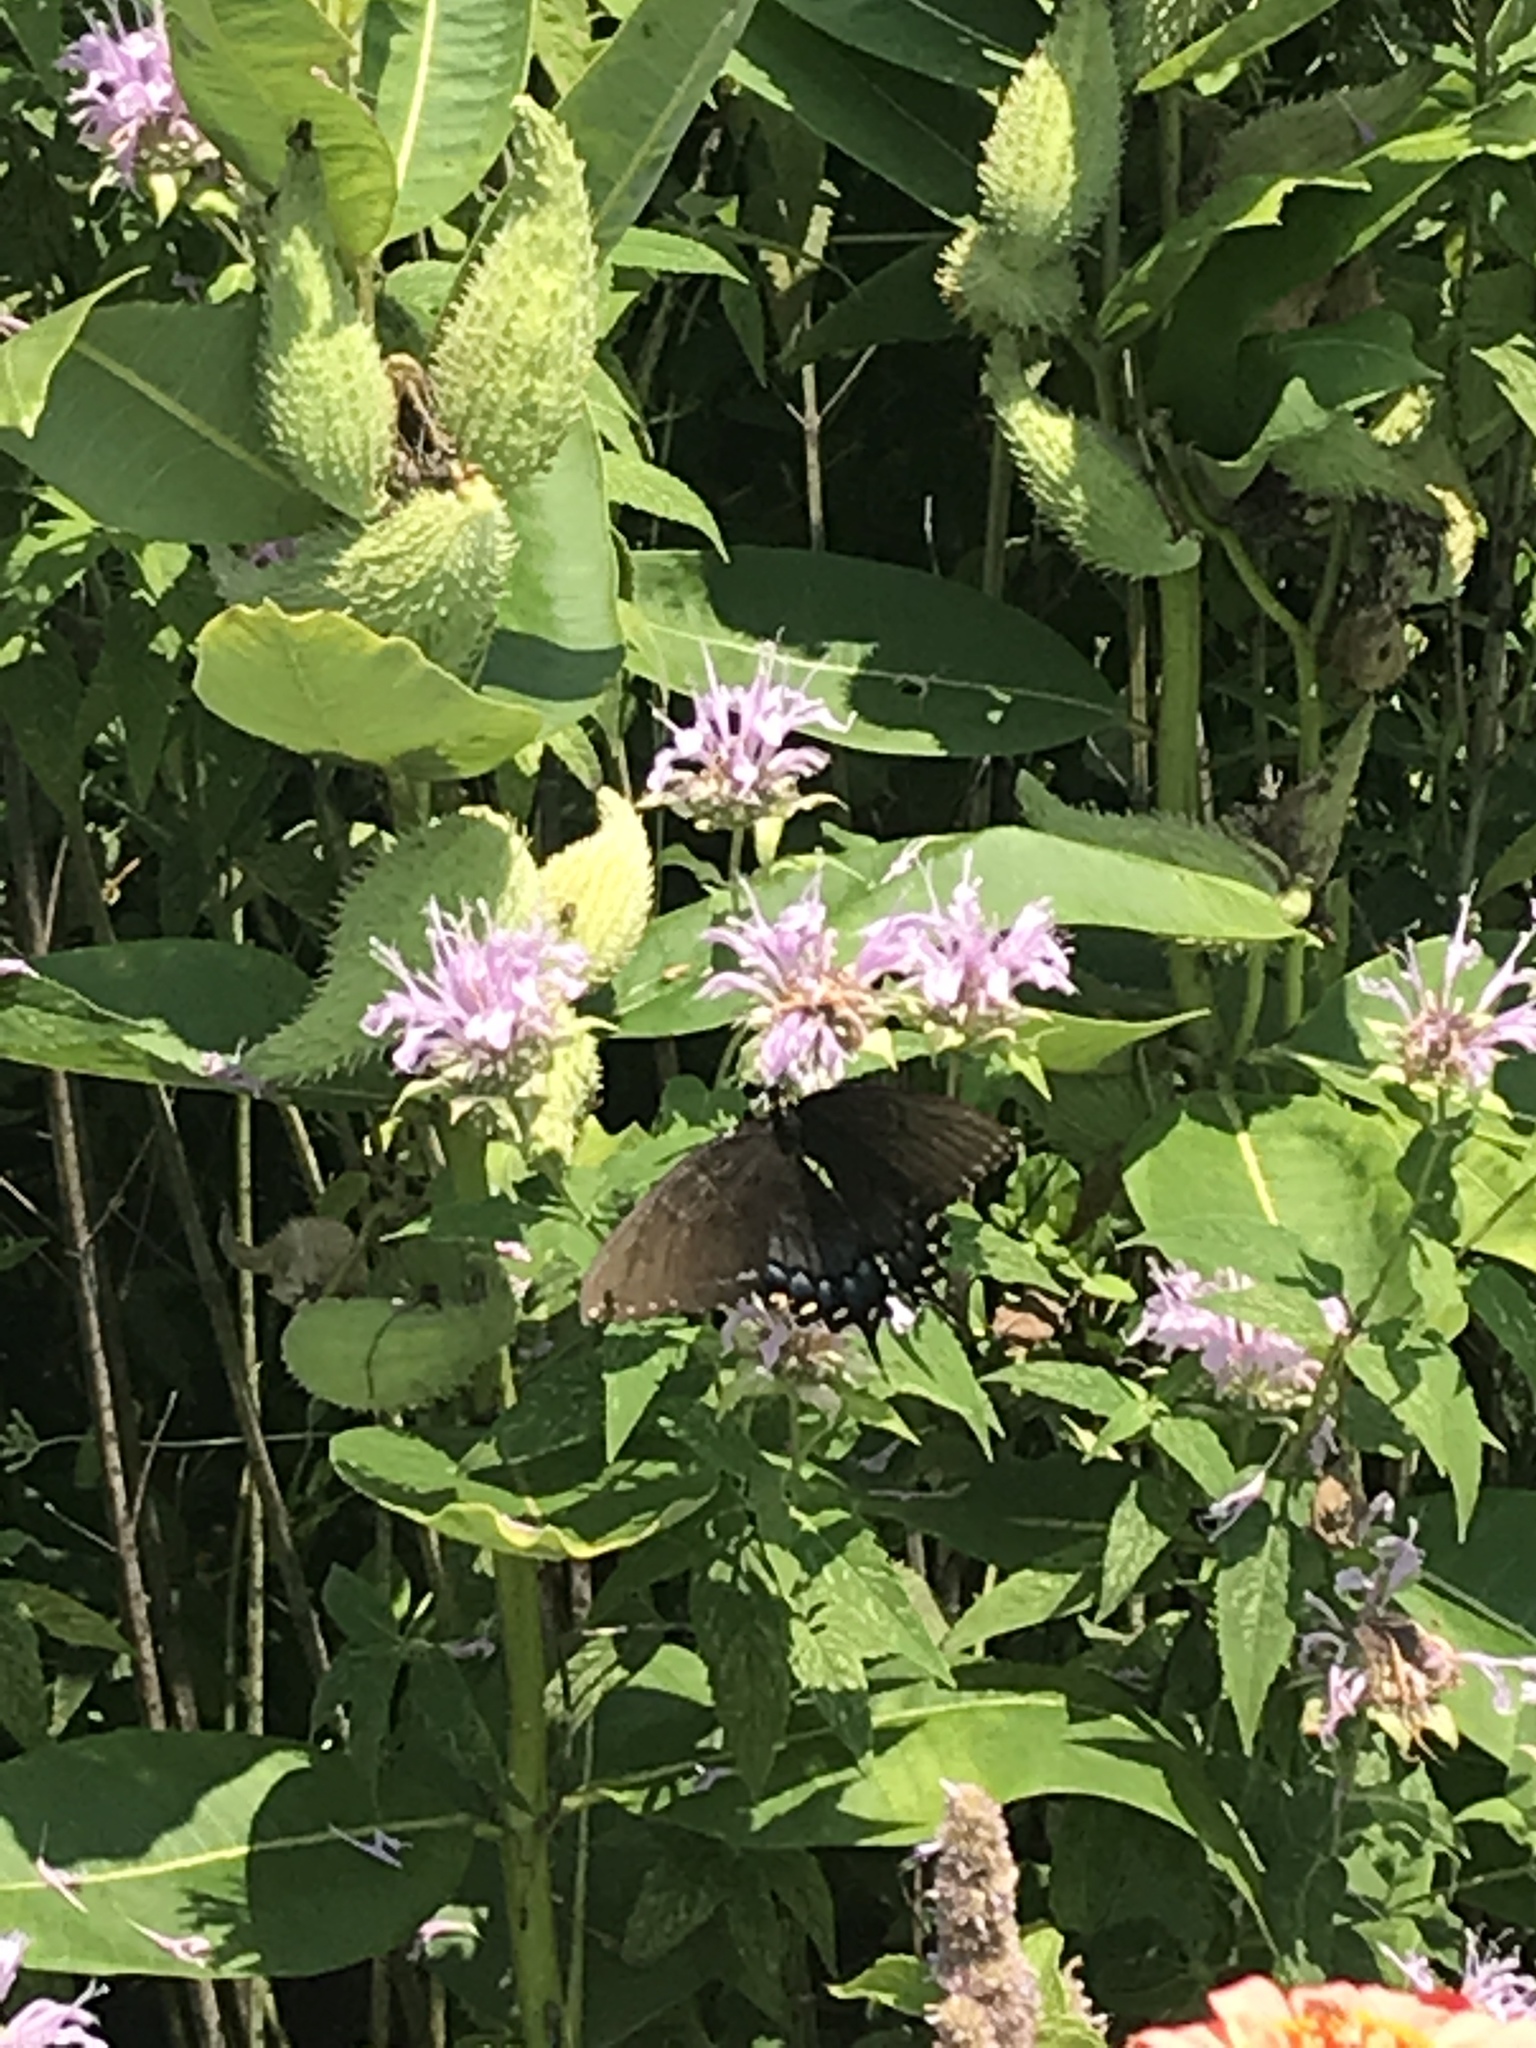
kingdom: Animalia
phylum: Arthropoda
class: Insecta
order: Lepidoptera
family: Papilionidae
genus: Papilio
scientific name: Papilio glaucus
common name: Tiger swallowtail
